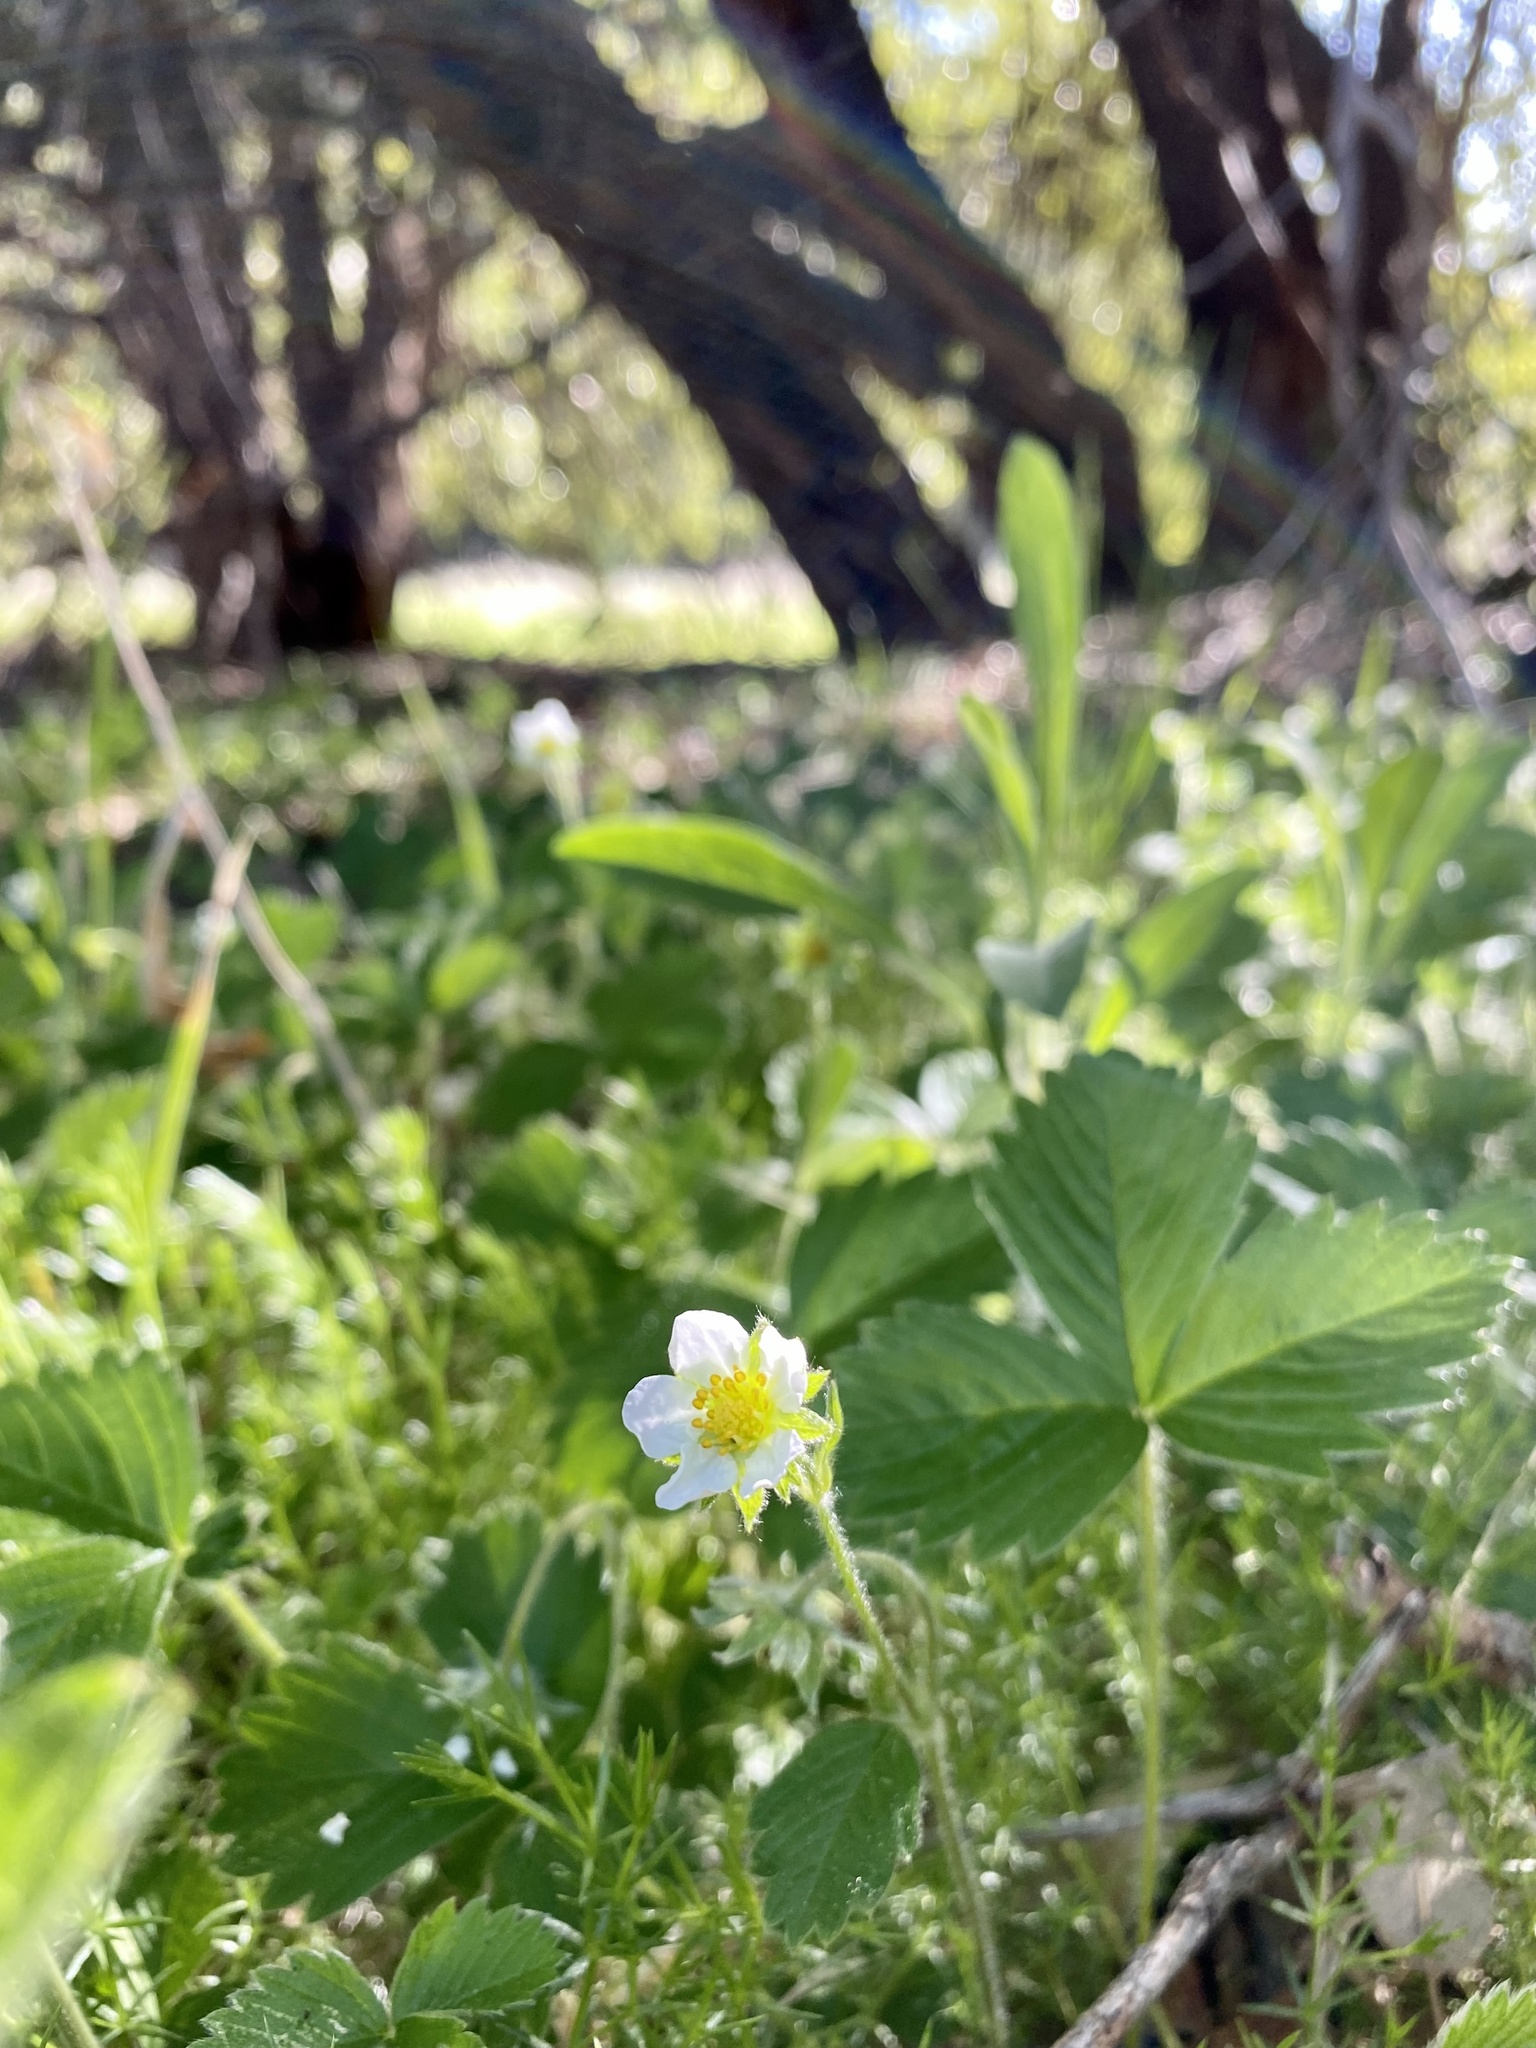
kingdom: Plantae
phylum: Tracheophyta
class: Magnoliopsida
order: Rosales
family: Rosaceae
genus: Fragaria
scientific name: Fragaria vesca
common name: Wild strawberry
